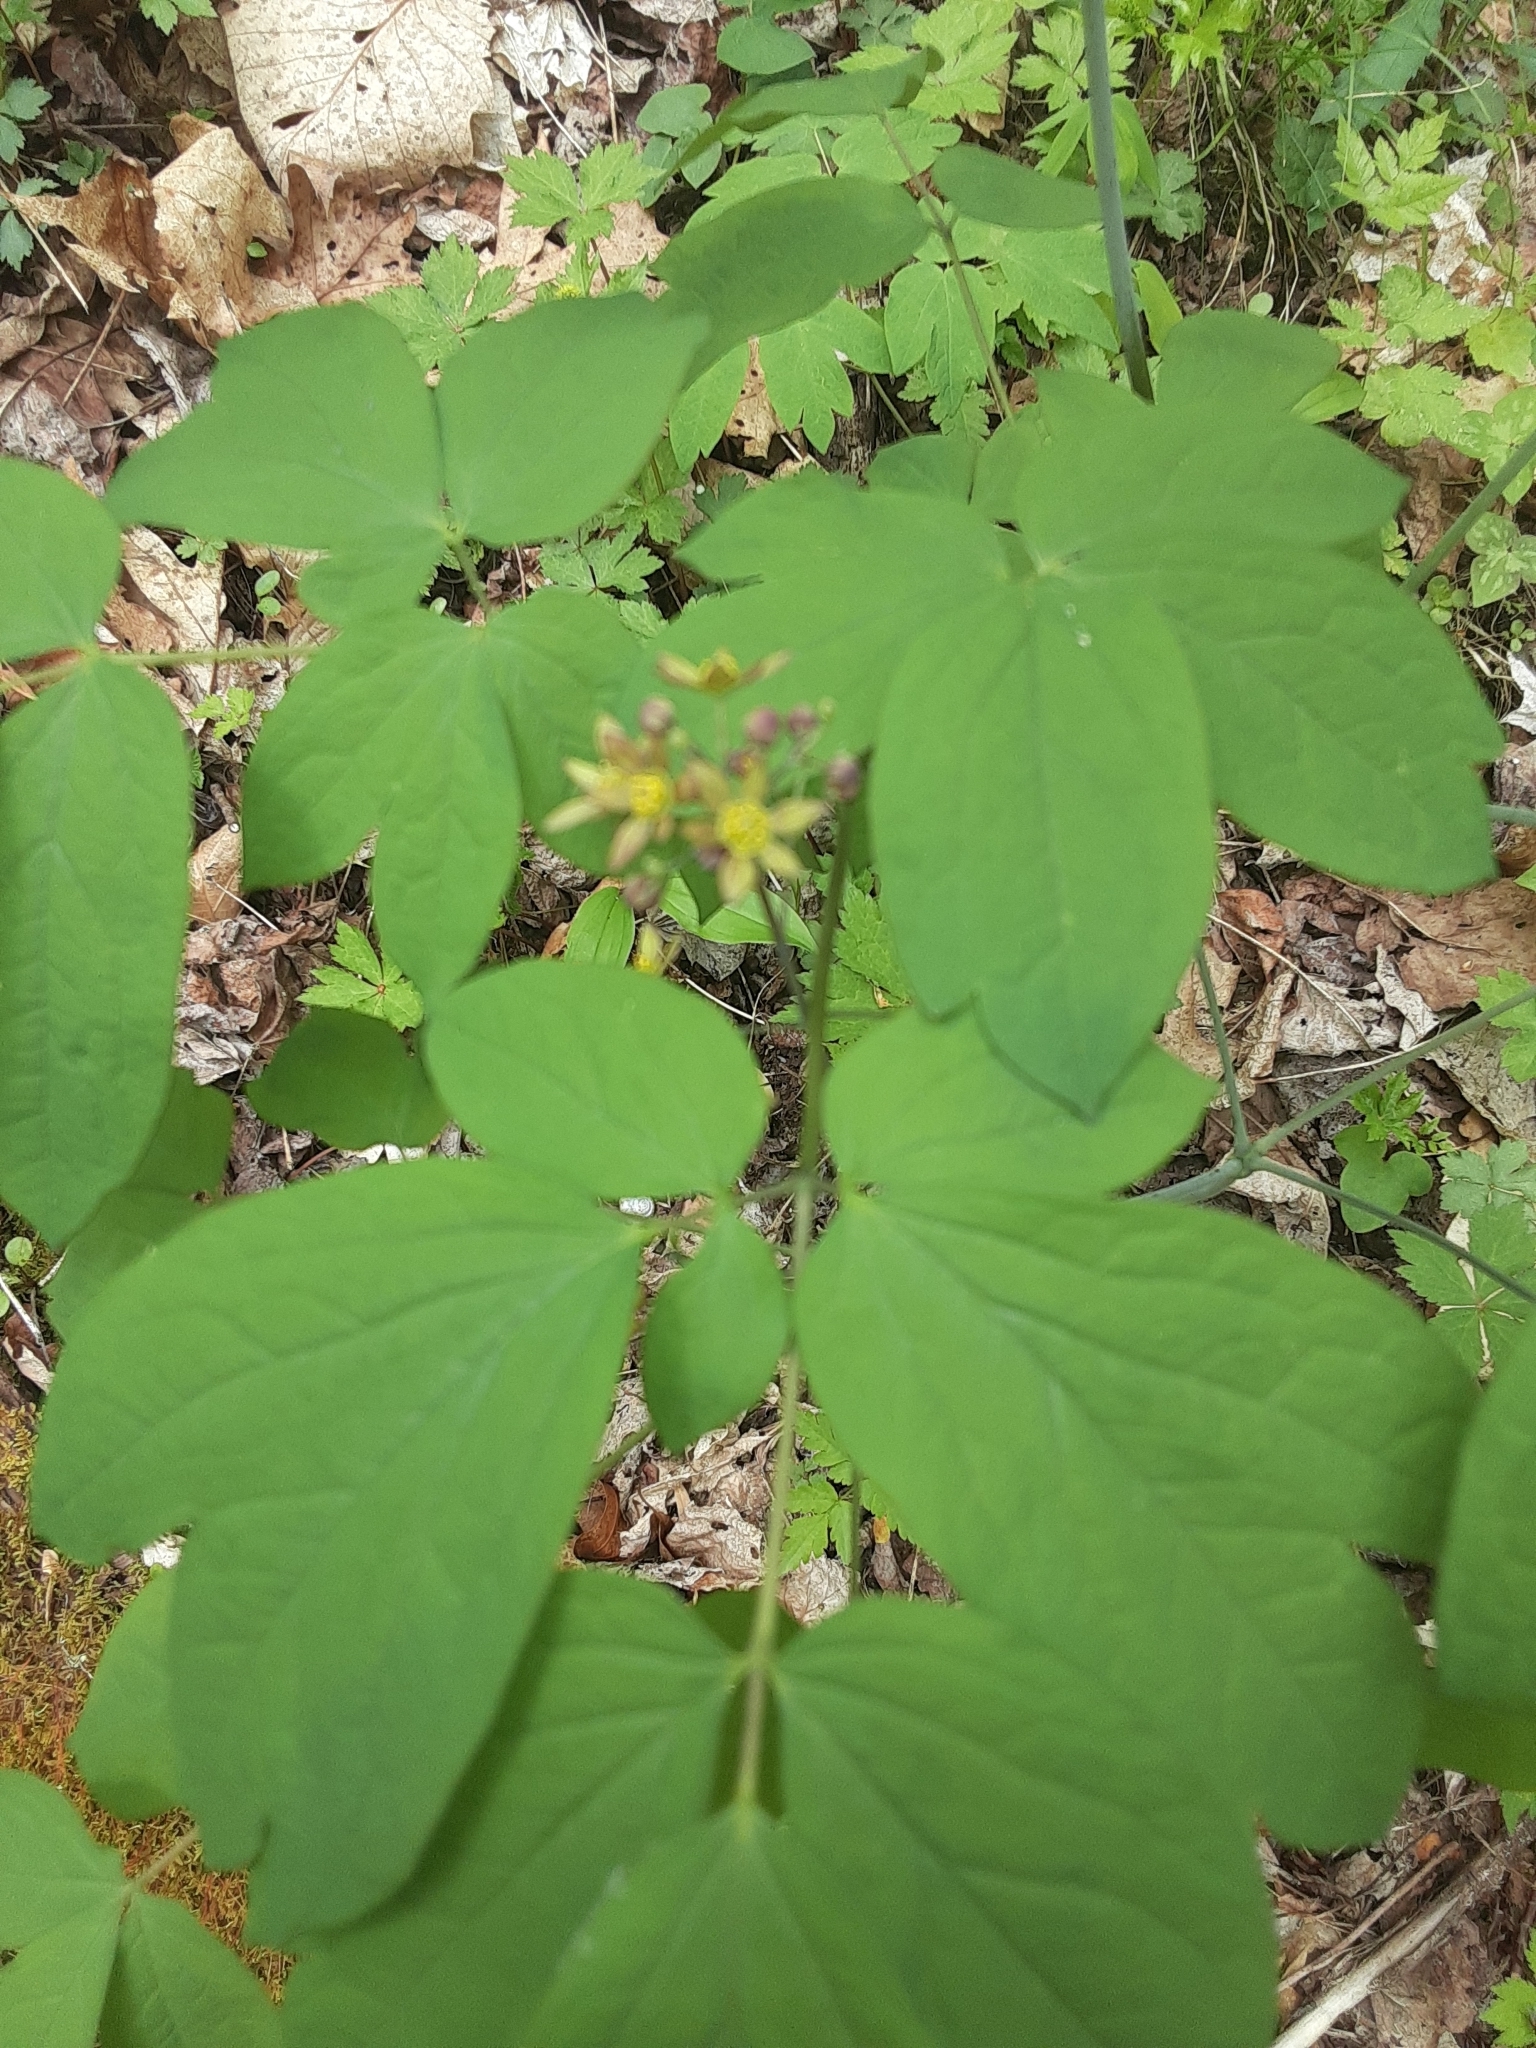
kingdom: Plantae
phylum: Tracheophyta
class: Magnoliopsida
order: Ranunculales
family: Berberidaceae
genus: Caulophyllum
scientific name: Caulophyllum thalictroides
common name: Blue cohosh
